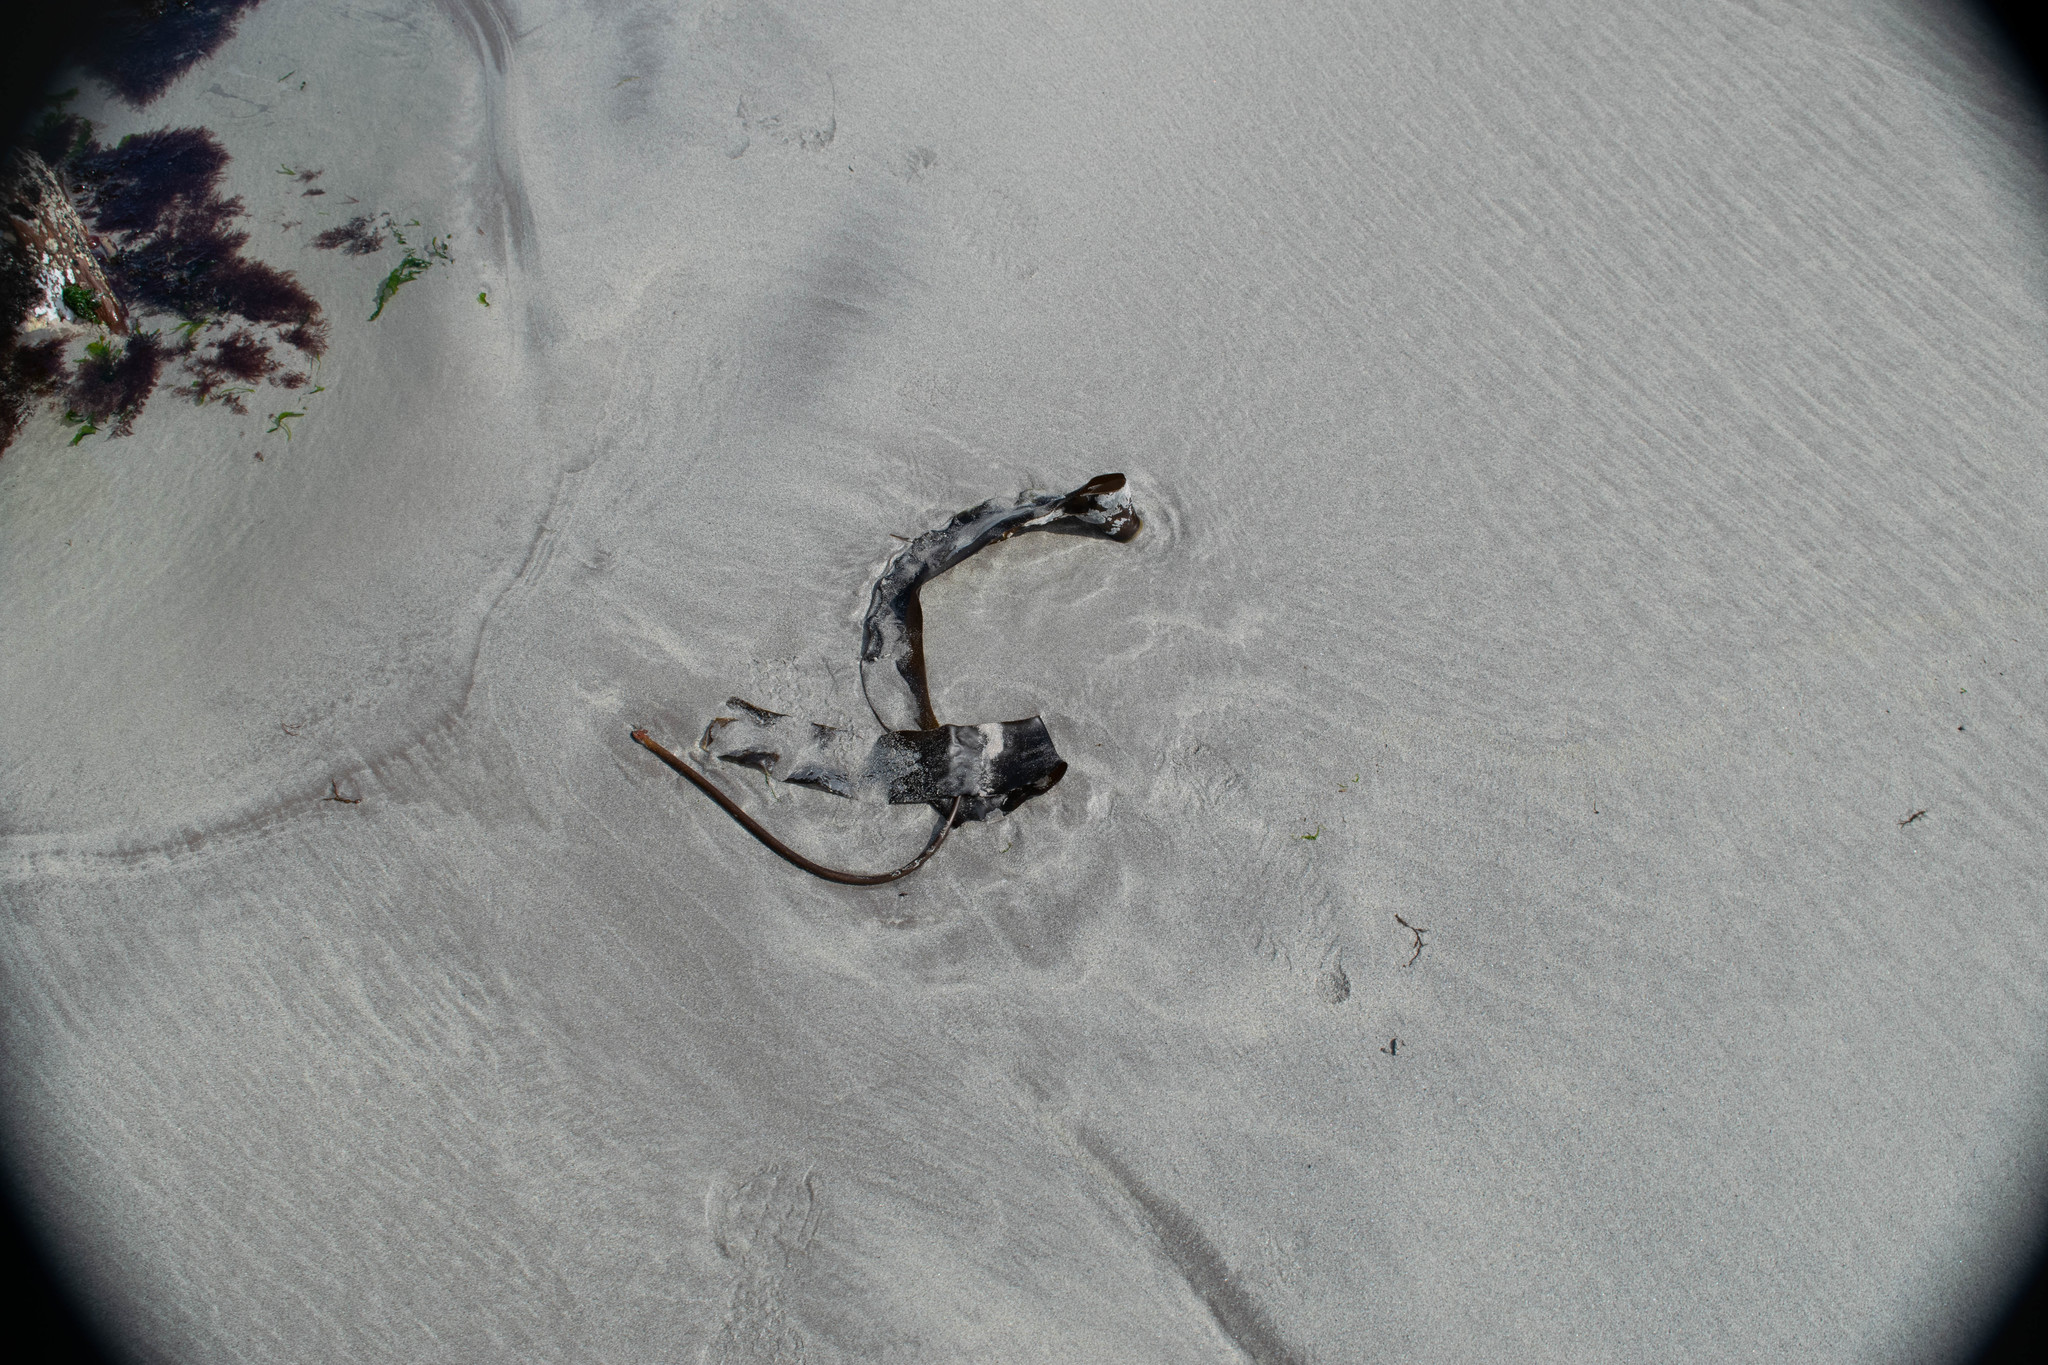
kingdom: Chromista
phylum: Ochrophyta
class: Phaeophyceae
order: Laminariales
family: Laminariaceae
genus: Laminaria
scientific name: Laminaria digitata
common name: Oarweed
